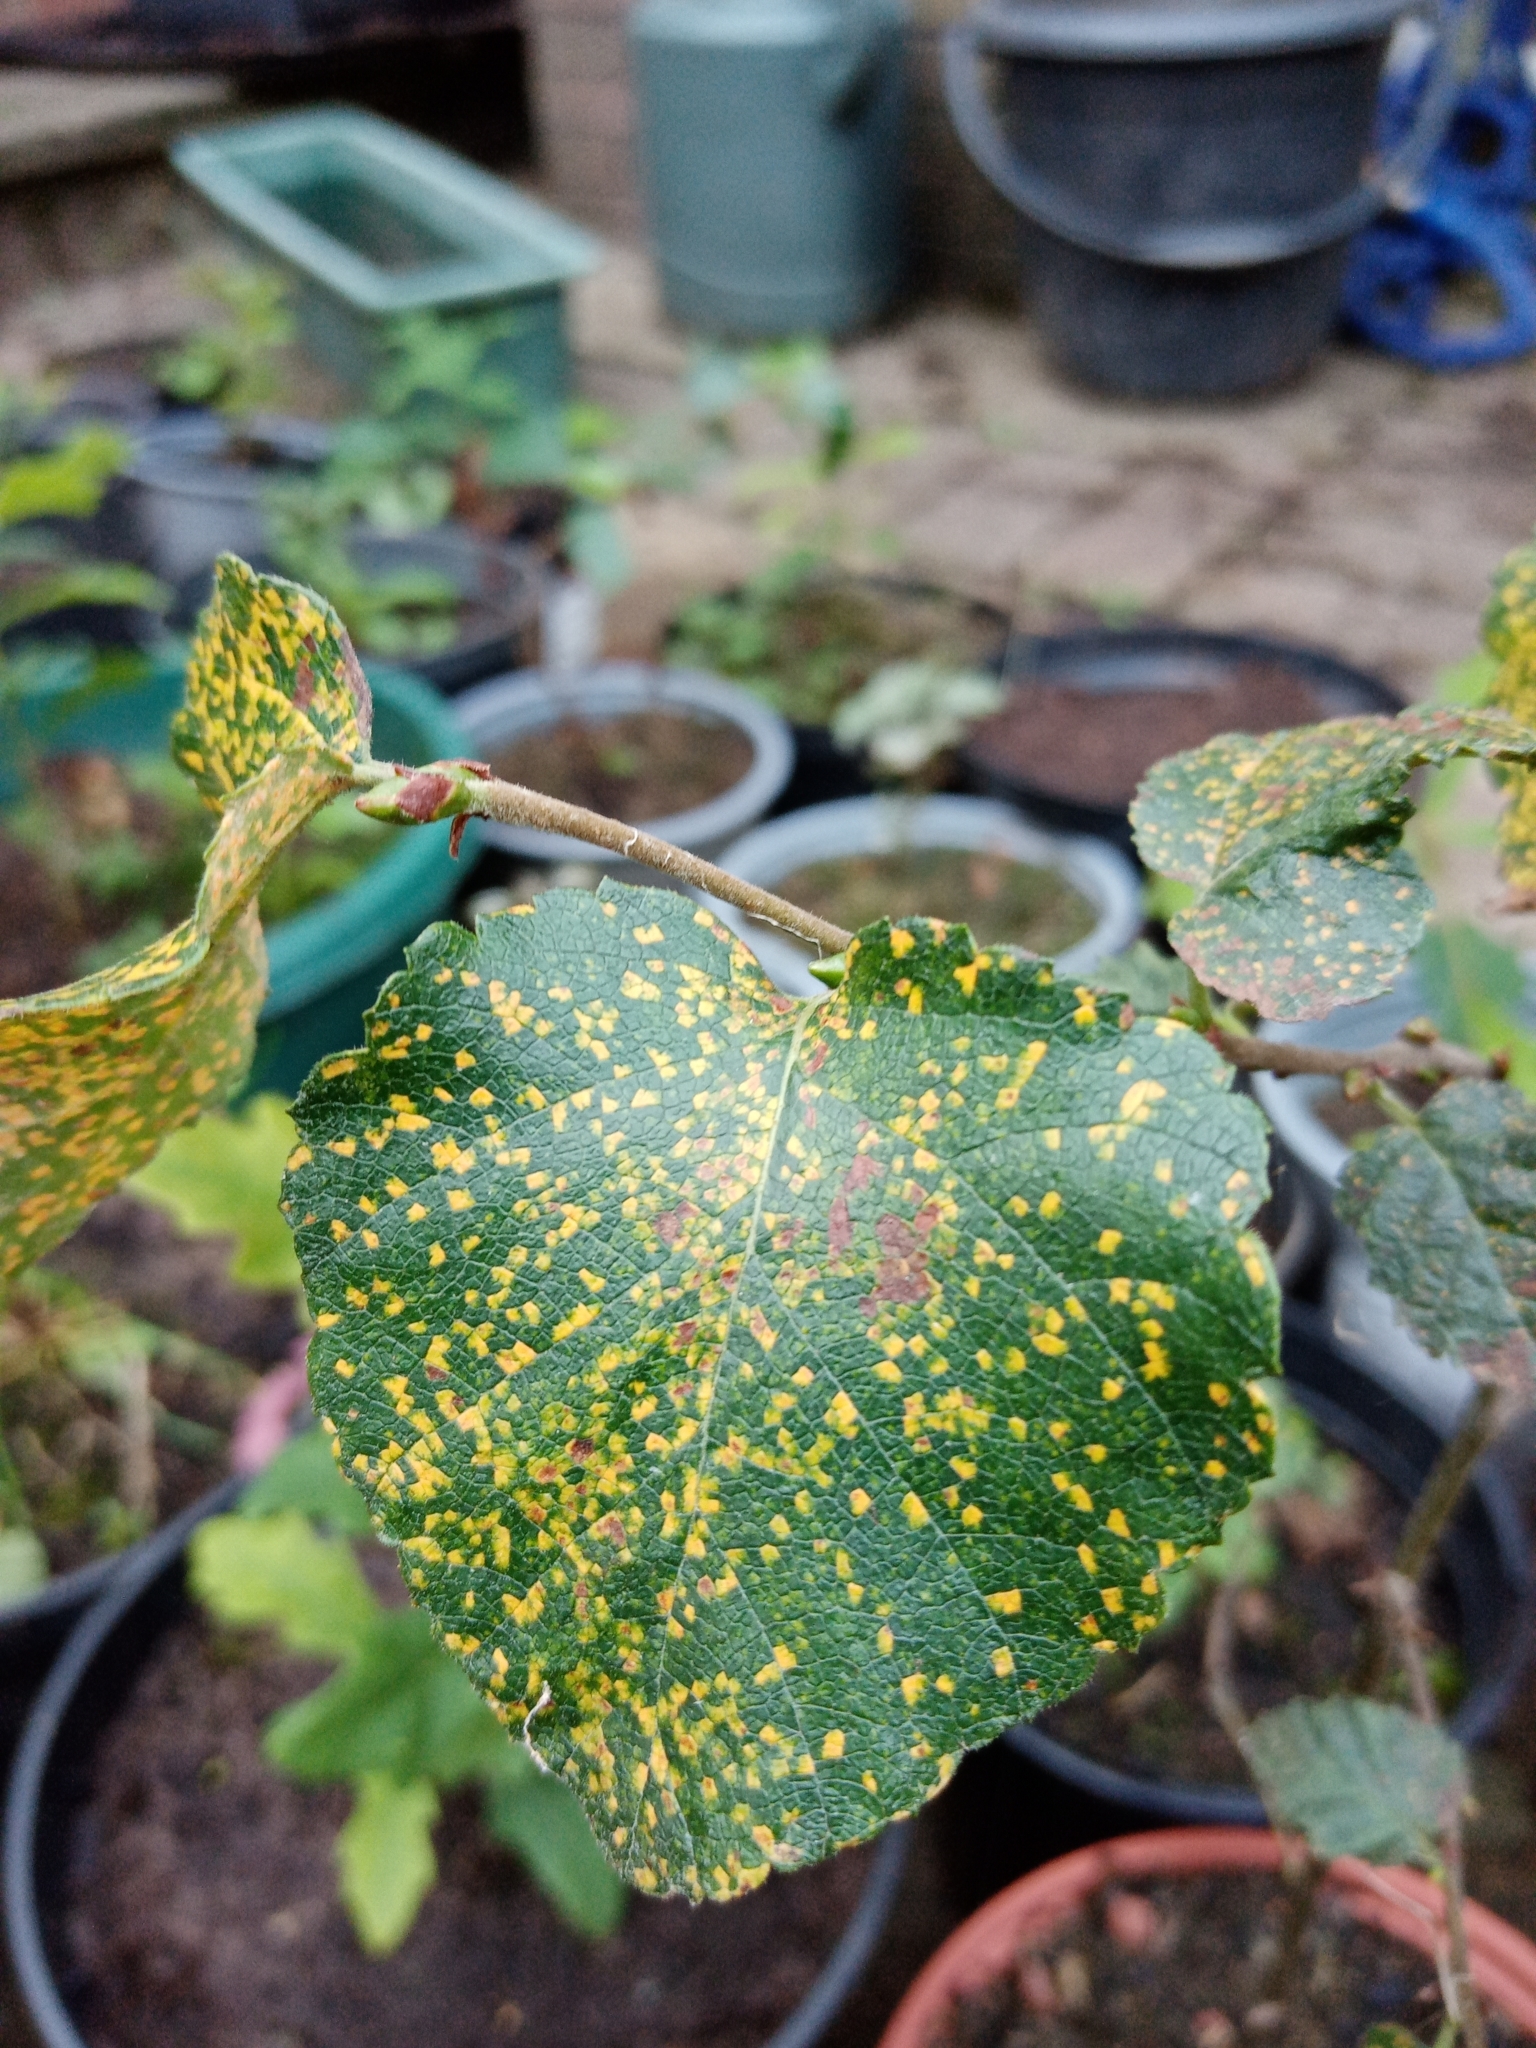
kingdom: Fungi
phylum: Basidiomycota
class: Pucciniomycetes
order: Pucciniales
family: Pucciniastraceae
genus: Melampsoridium
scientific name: Melampsoridium betulinum
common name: Birch rust
